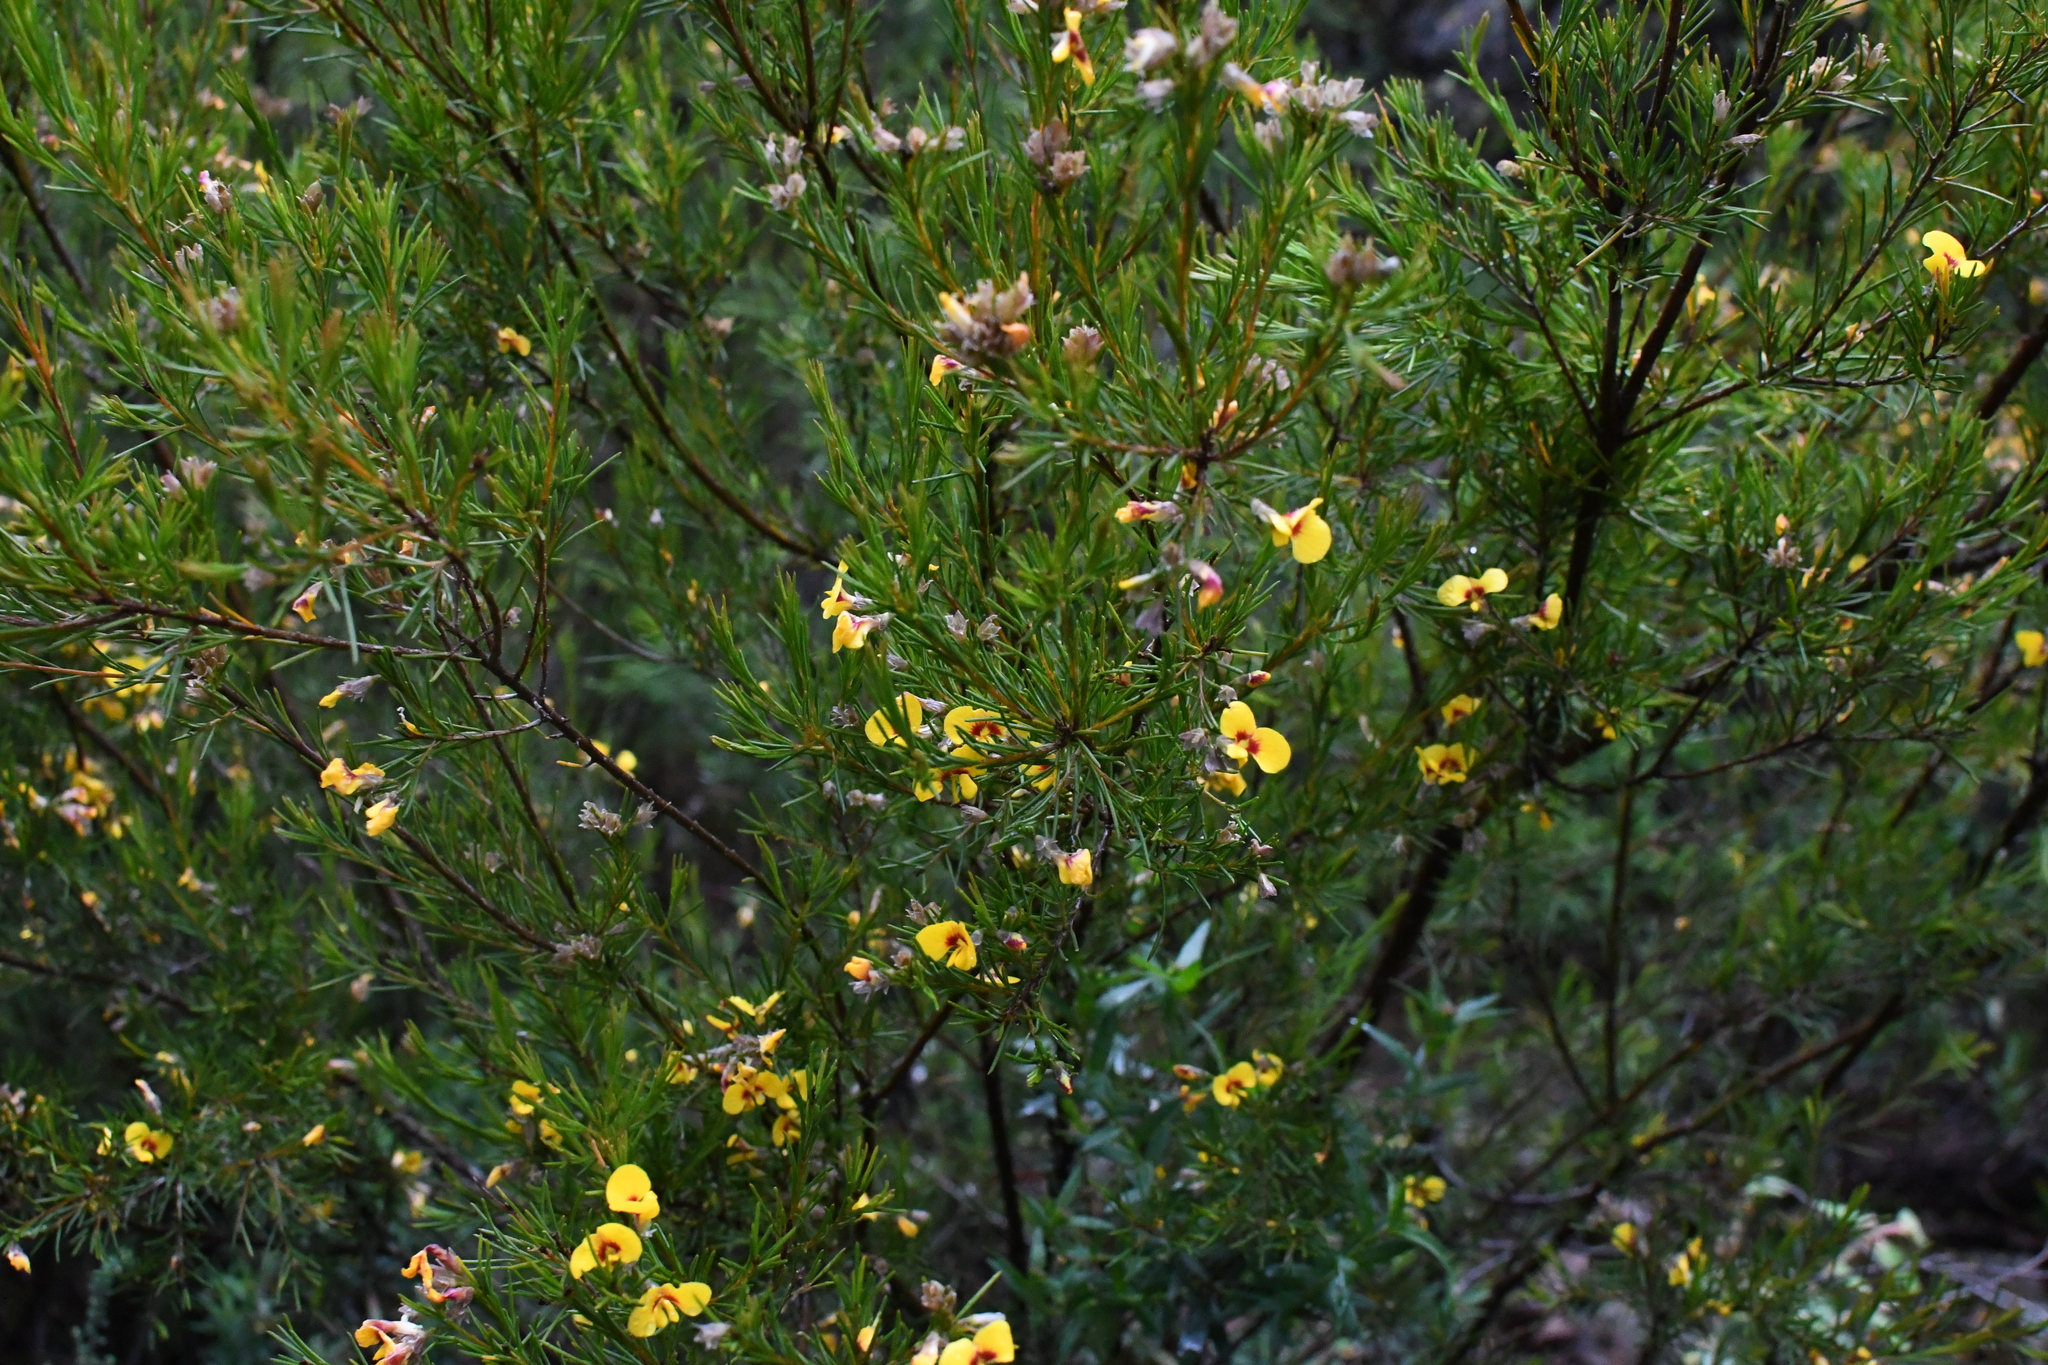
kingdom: Plantae
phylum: Tracheophyta
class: Magnoliopsida
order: Fabales
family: Fabaceae
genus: Dillwynia
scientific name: Dillwynia glaberrima
